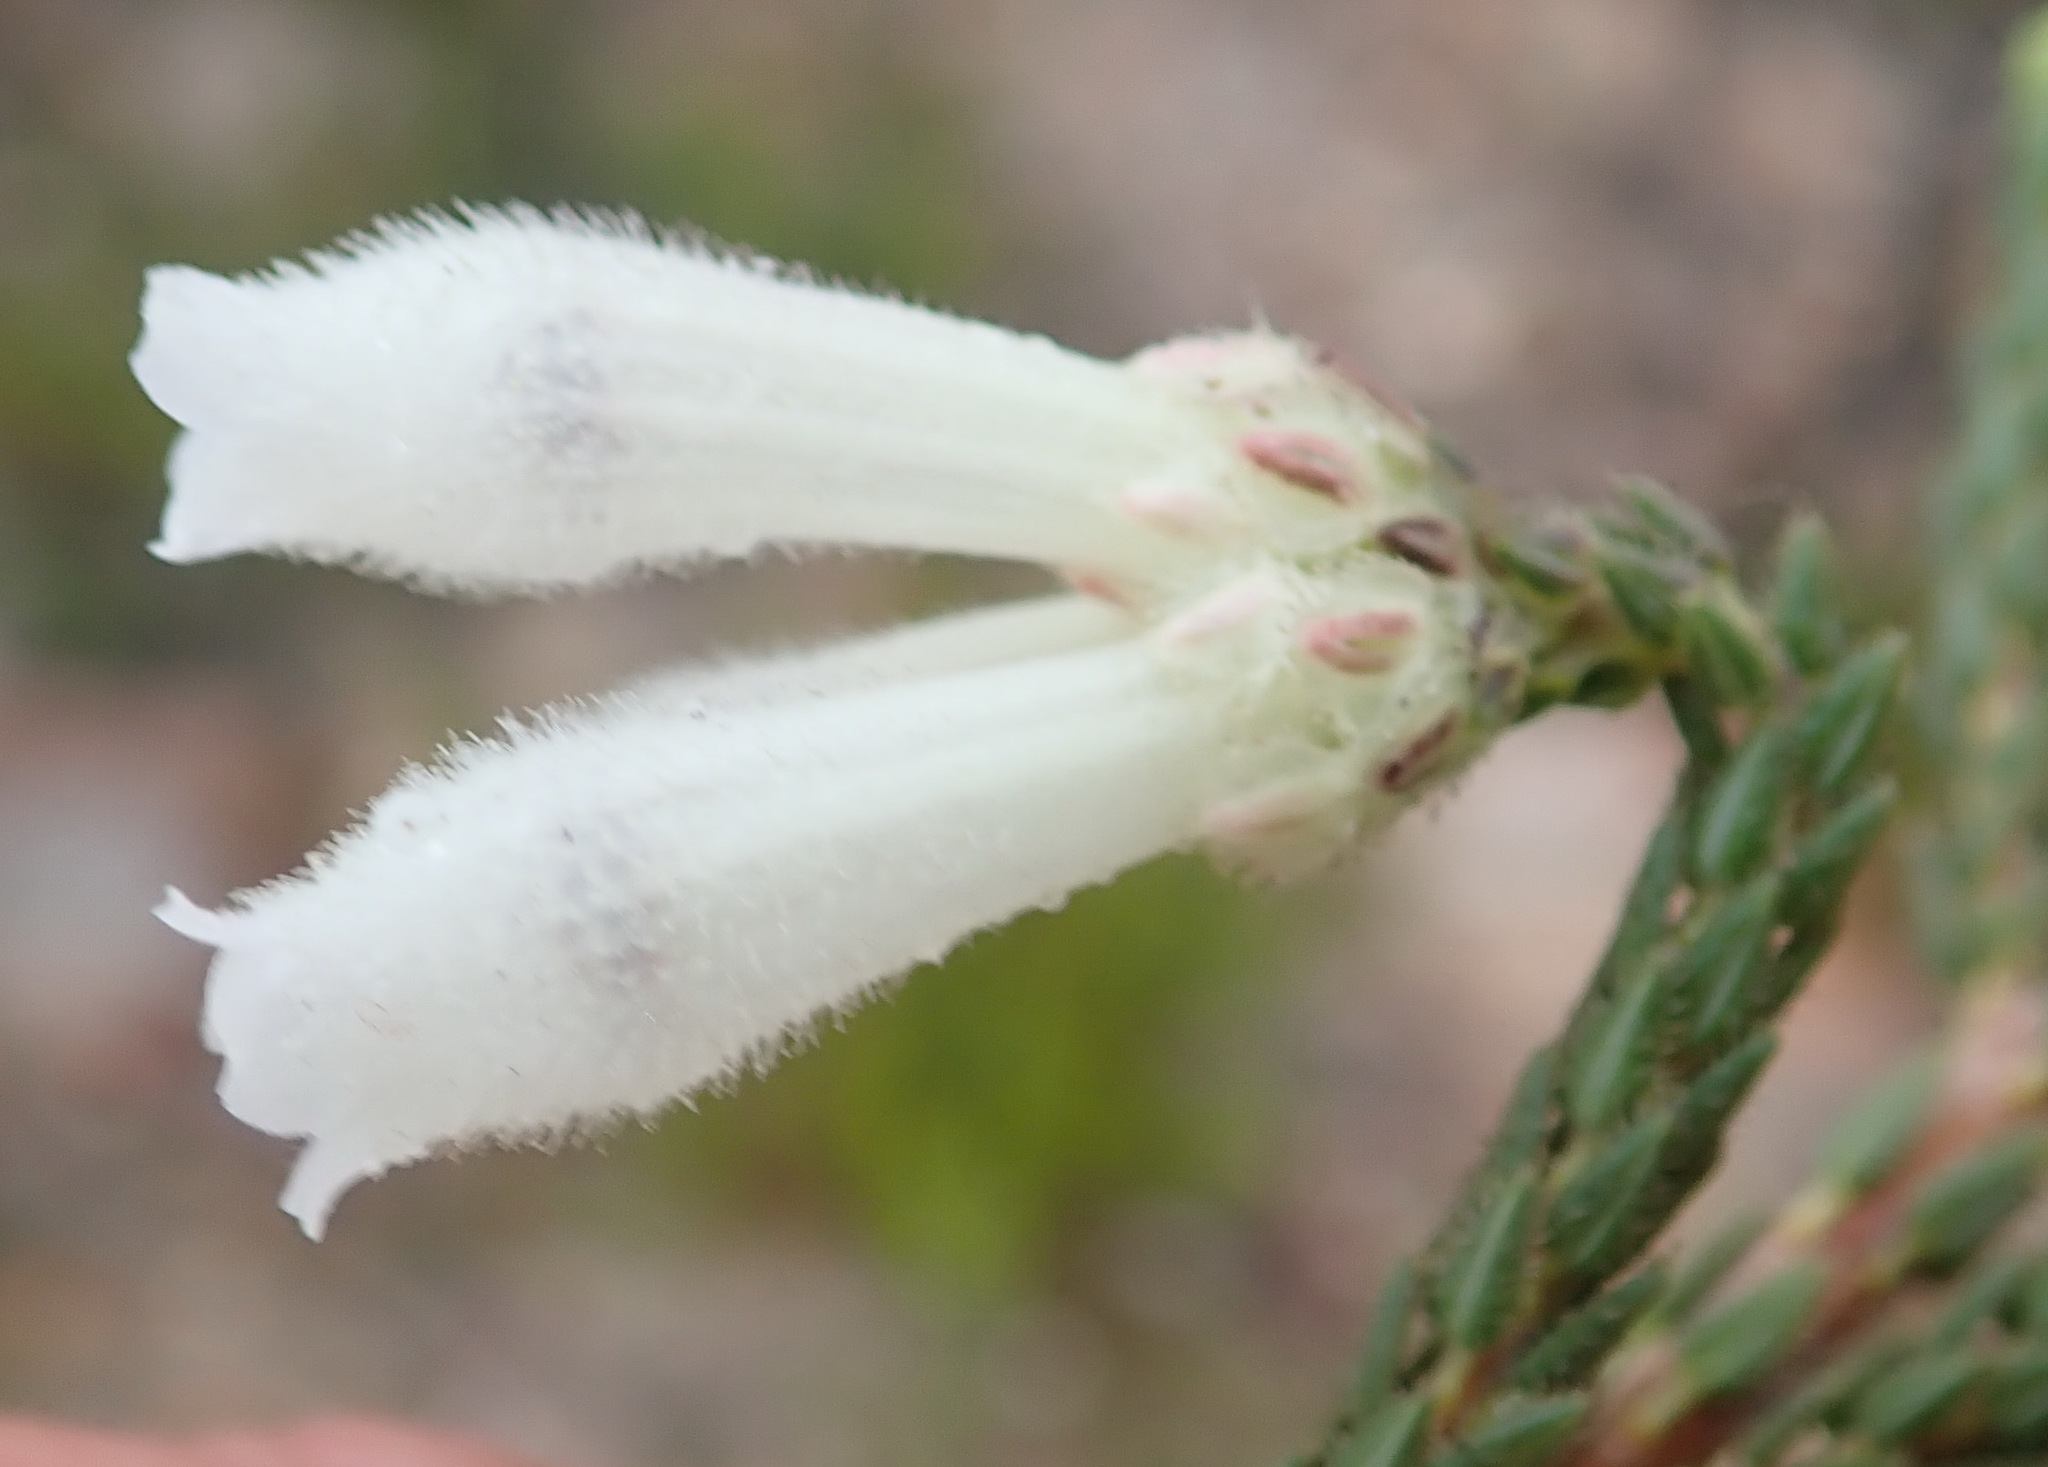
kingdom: Plantae
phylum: Tracheophyta
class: Magnoliopsida
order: Ericales
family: Ericaceae
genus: Erica
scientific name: Erica pectinifolia
